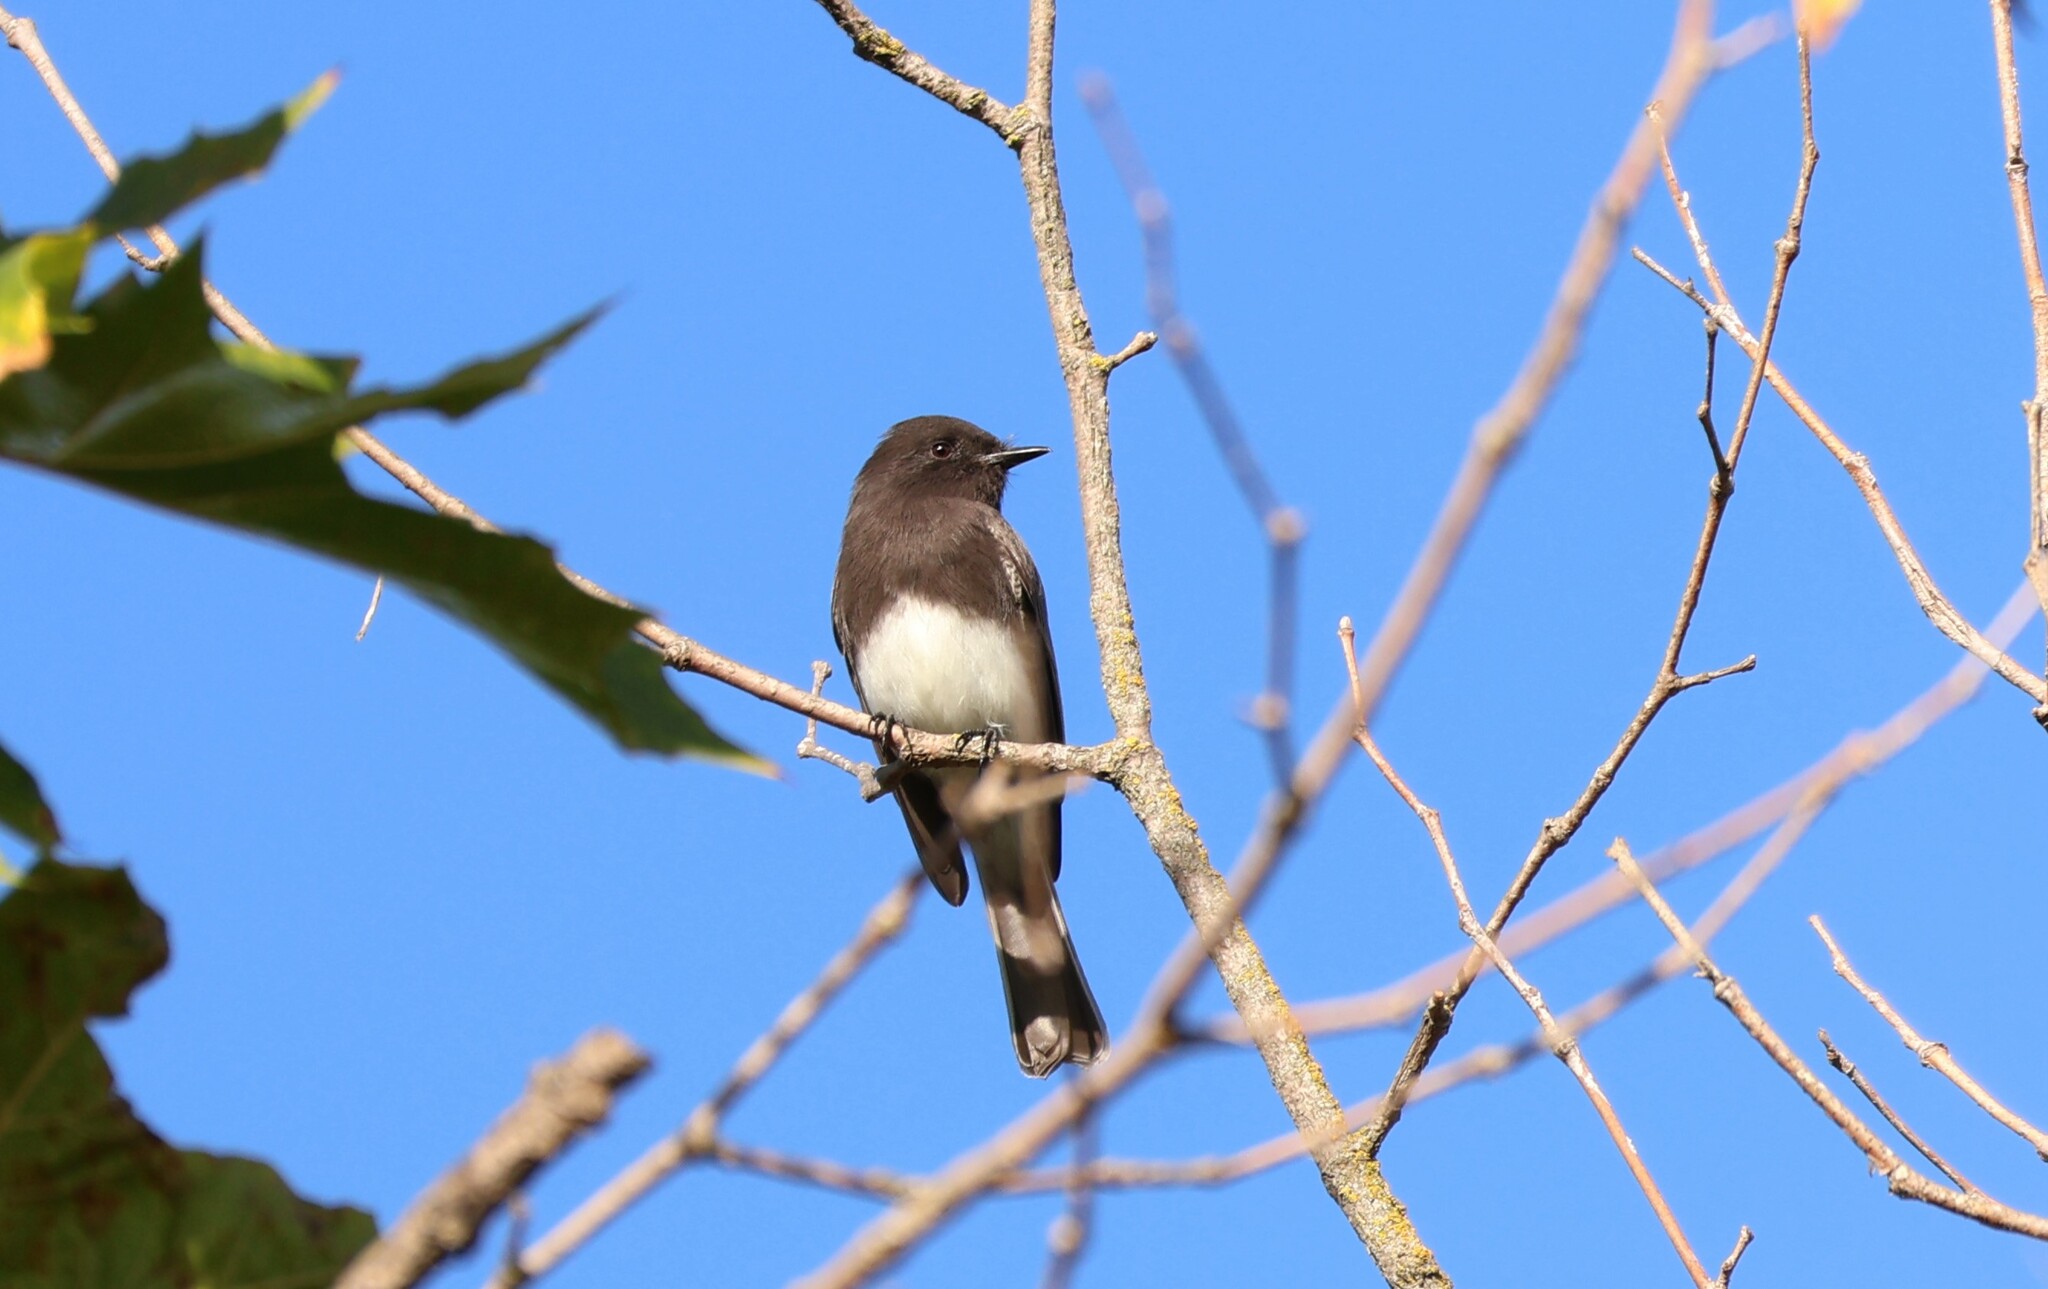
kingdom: Animalia
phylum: Chordata
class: Aves
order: Passeriformes
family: Tyrannidae
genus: Sayornis
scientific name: Sayornis nigricans
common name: Black phoebe
